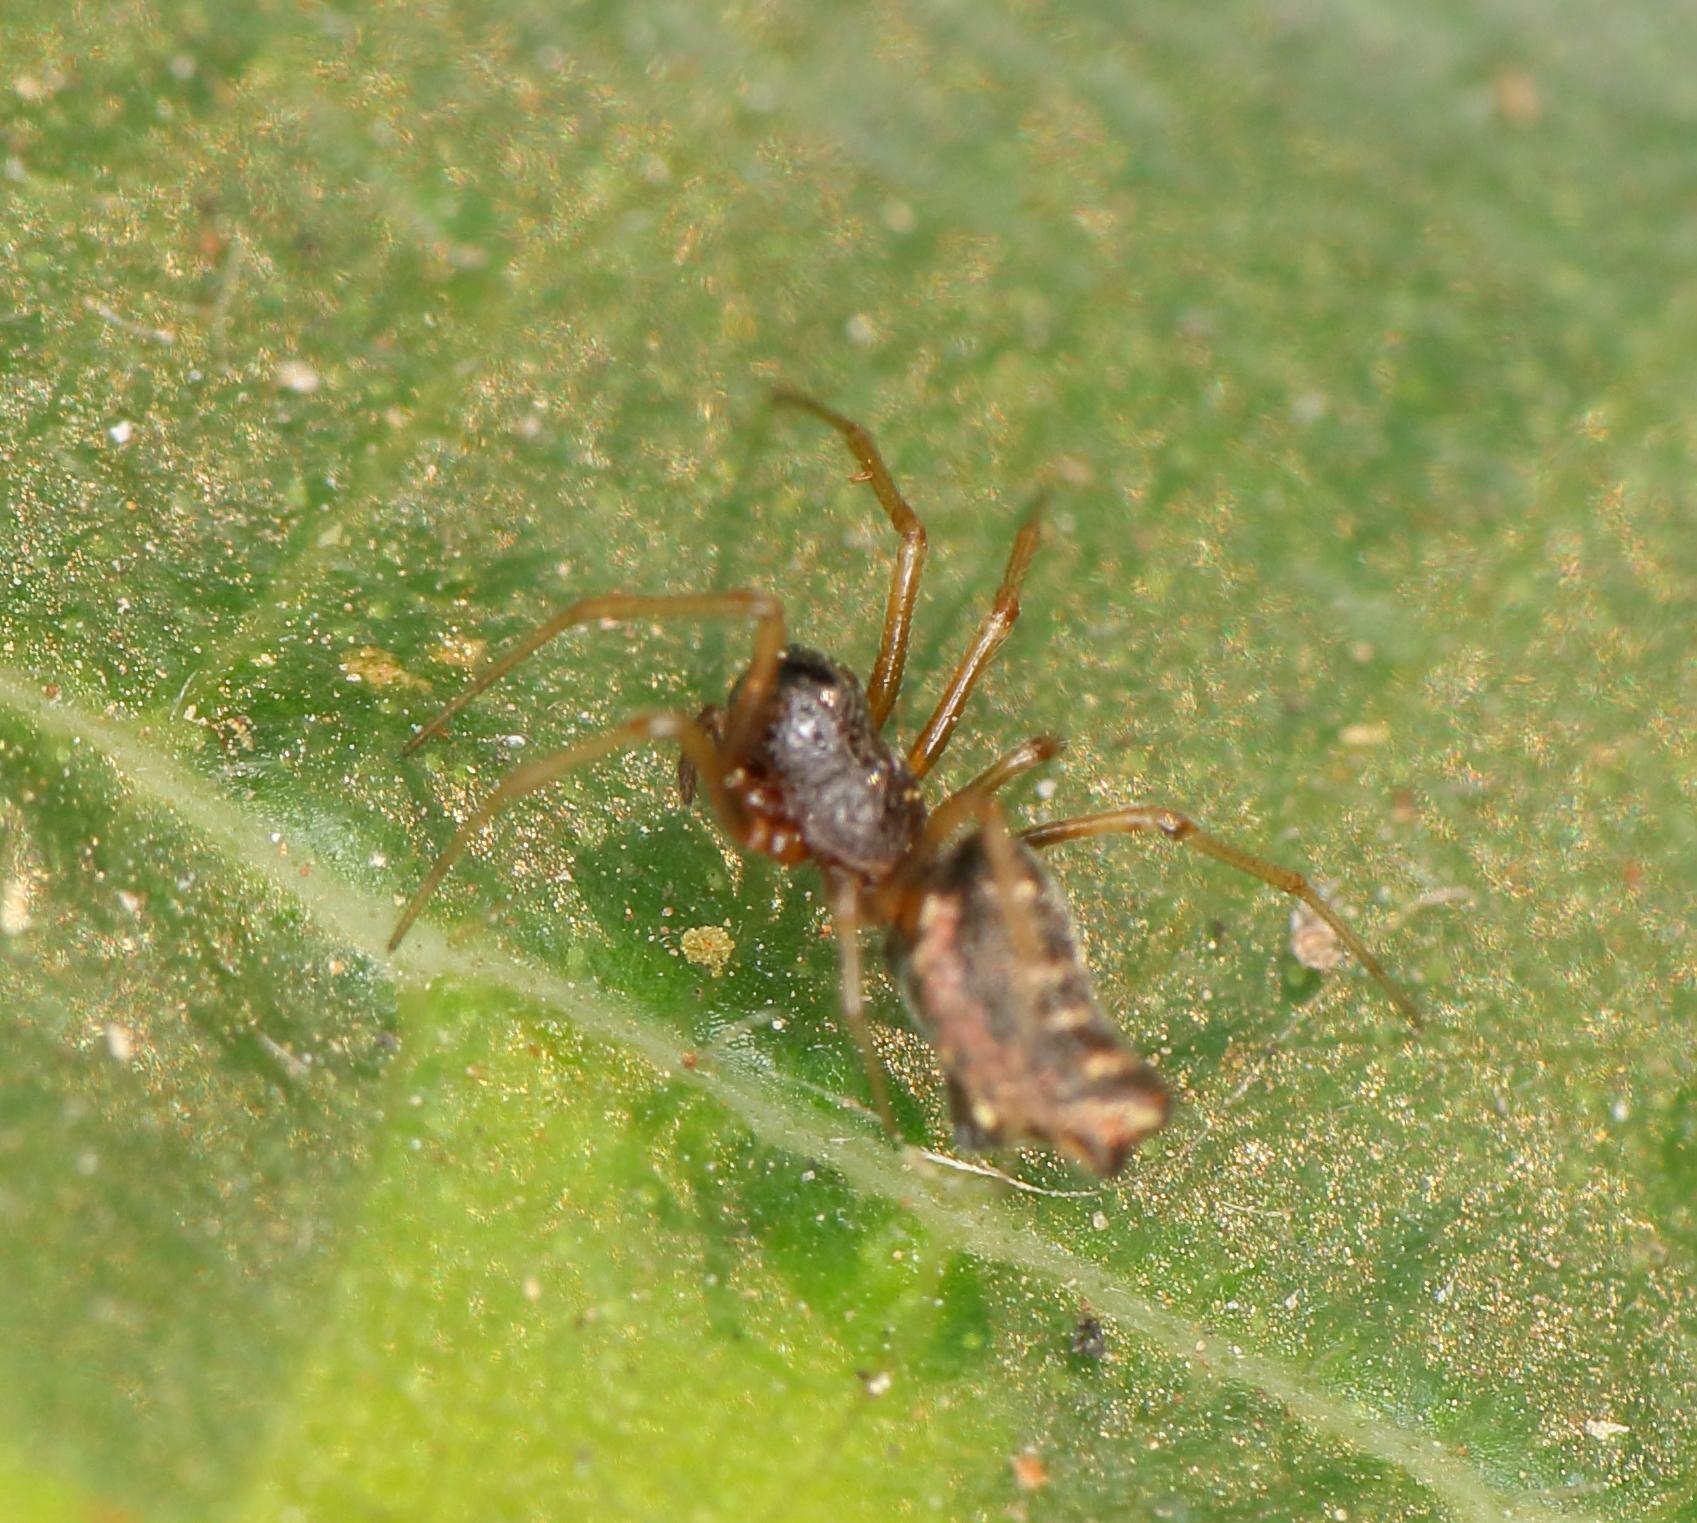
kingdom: Animalia
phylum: Arthropoda
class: Arachnida
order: Araneae
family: Araneidae
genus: Chorizopes
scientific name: Chorizopes
